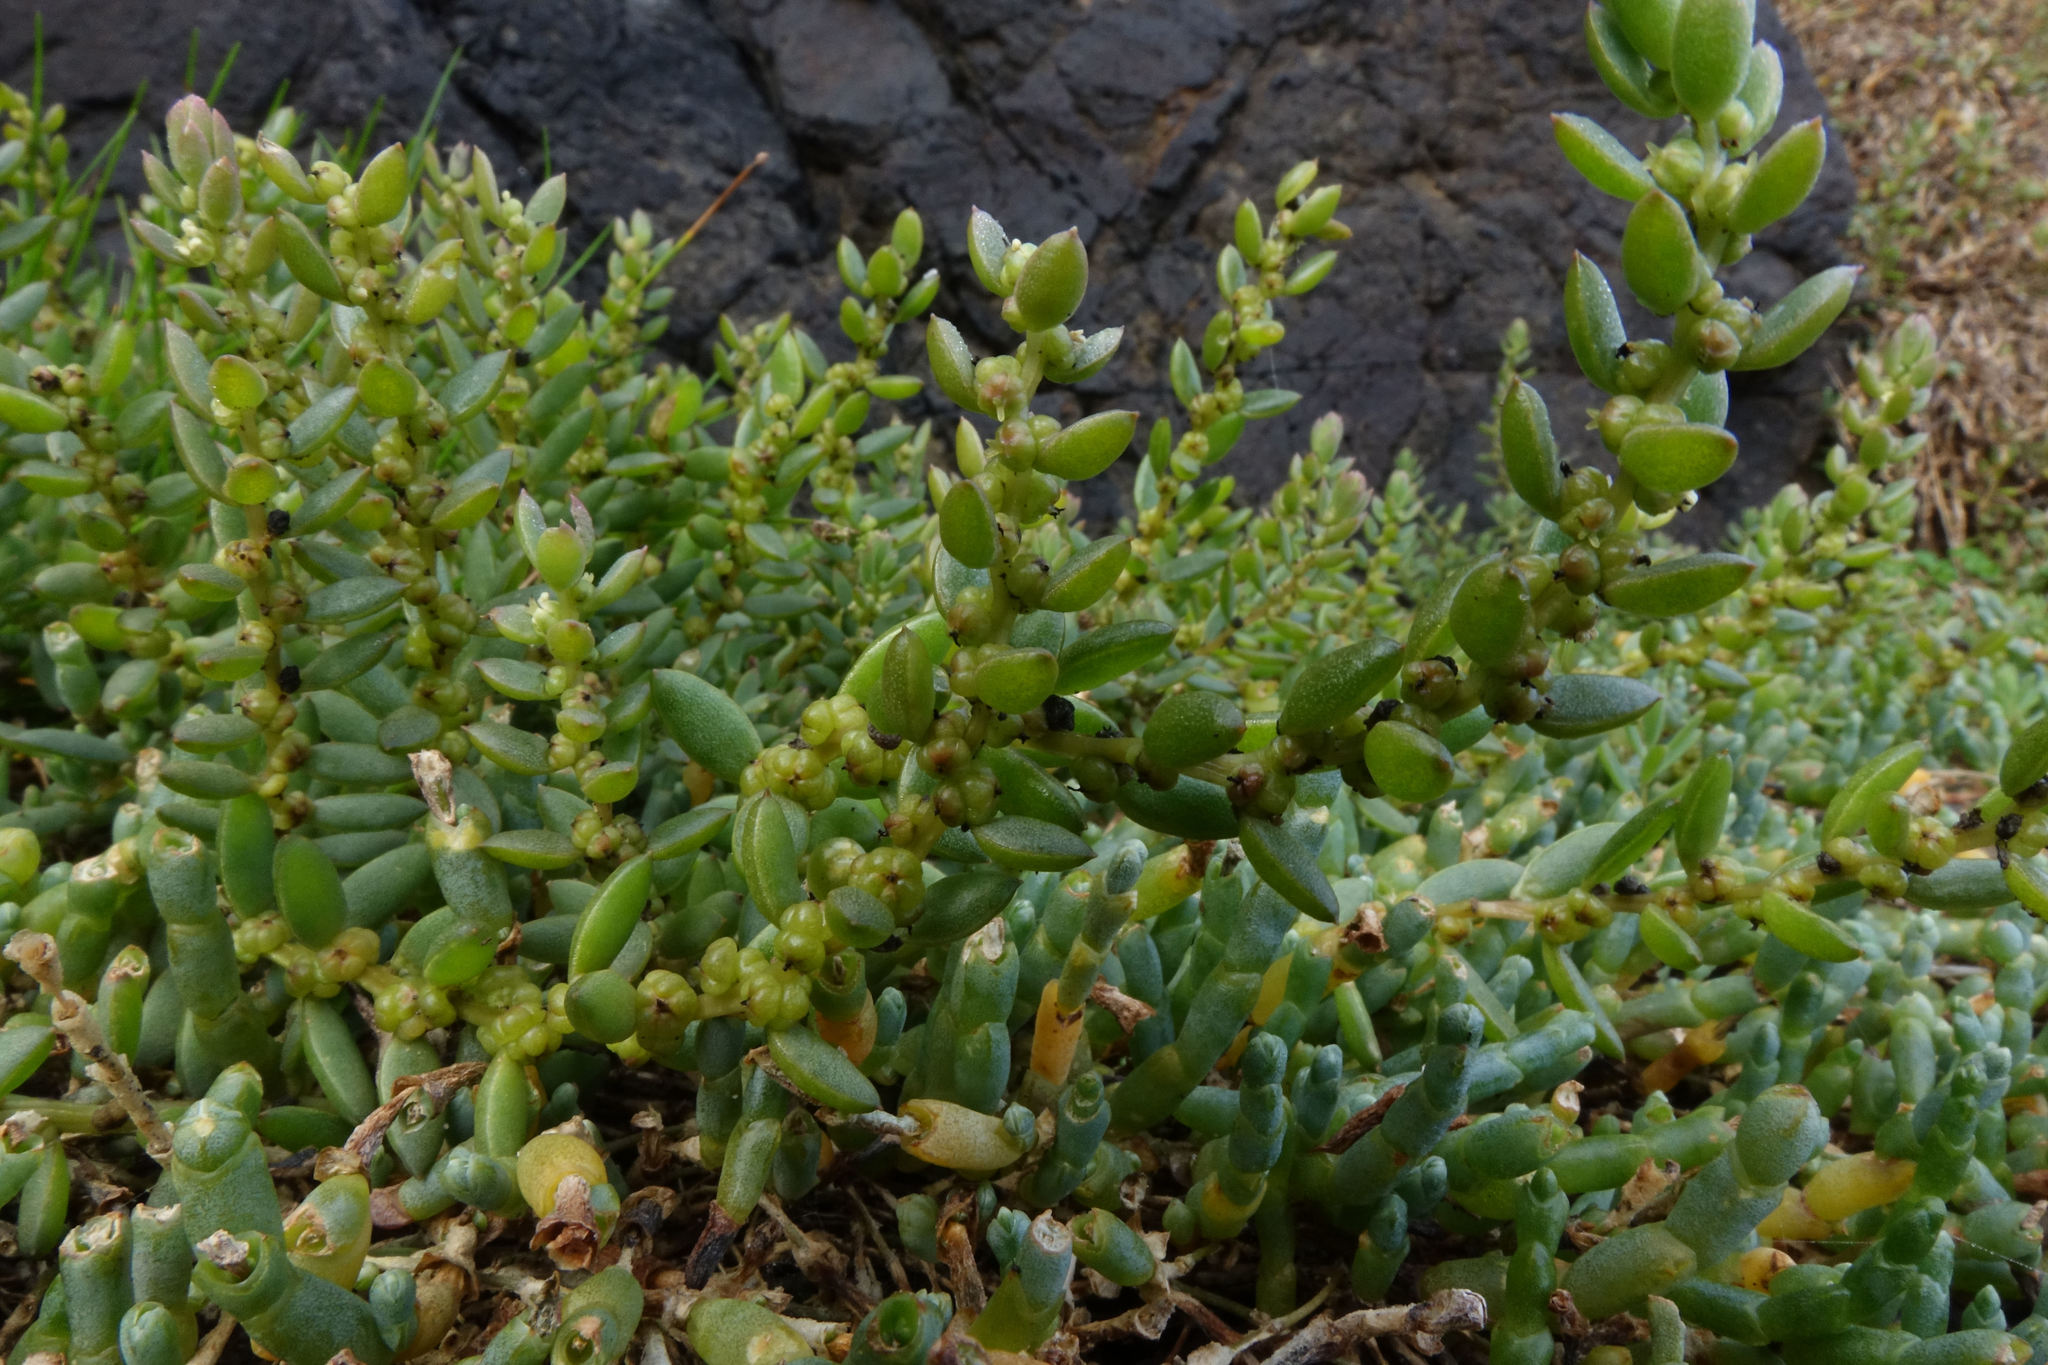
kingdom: Plantae
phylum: Tracheophyta
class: Magnoliopsida
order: Caryophyllales
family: Amaranthaceae
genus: Suaeda
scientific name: Suaeda novae-zelandiae
